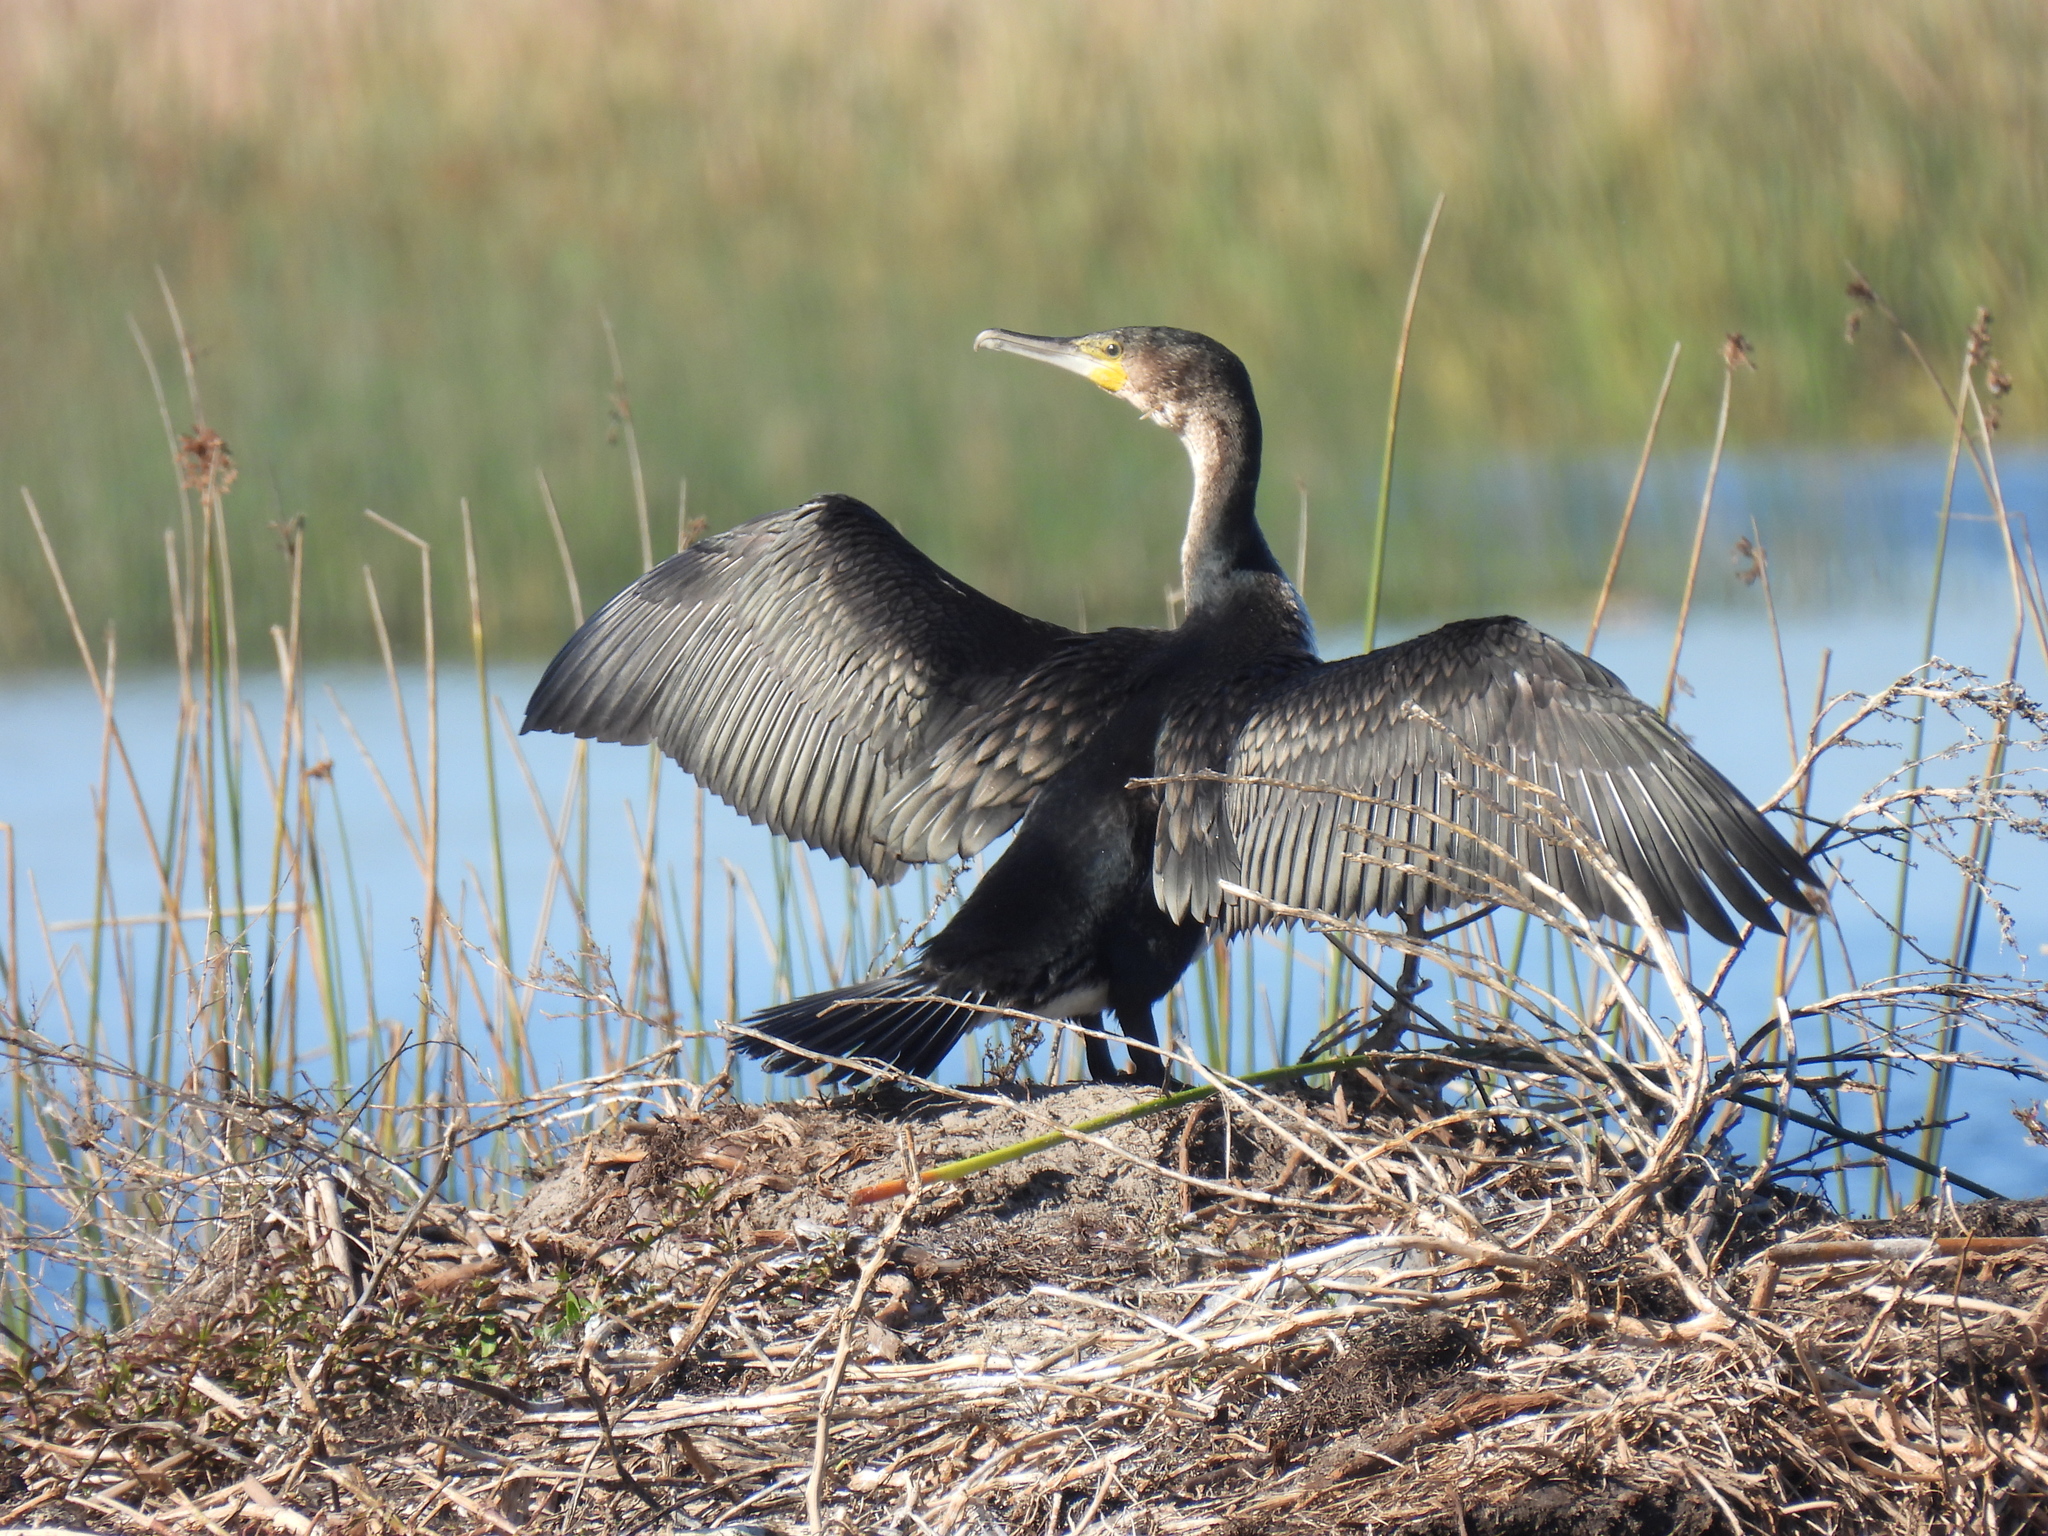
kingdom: Animalia
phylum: Chordata
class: Aves
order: Suliformes
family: Phalacrocoracidae
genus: Phalacrocorax
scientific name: Phalacrocorax carbo
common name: Great cormorant
